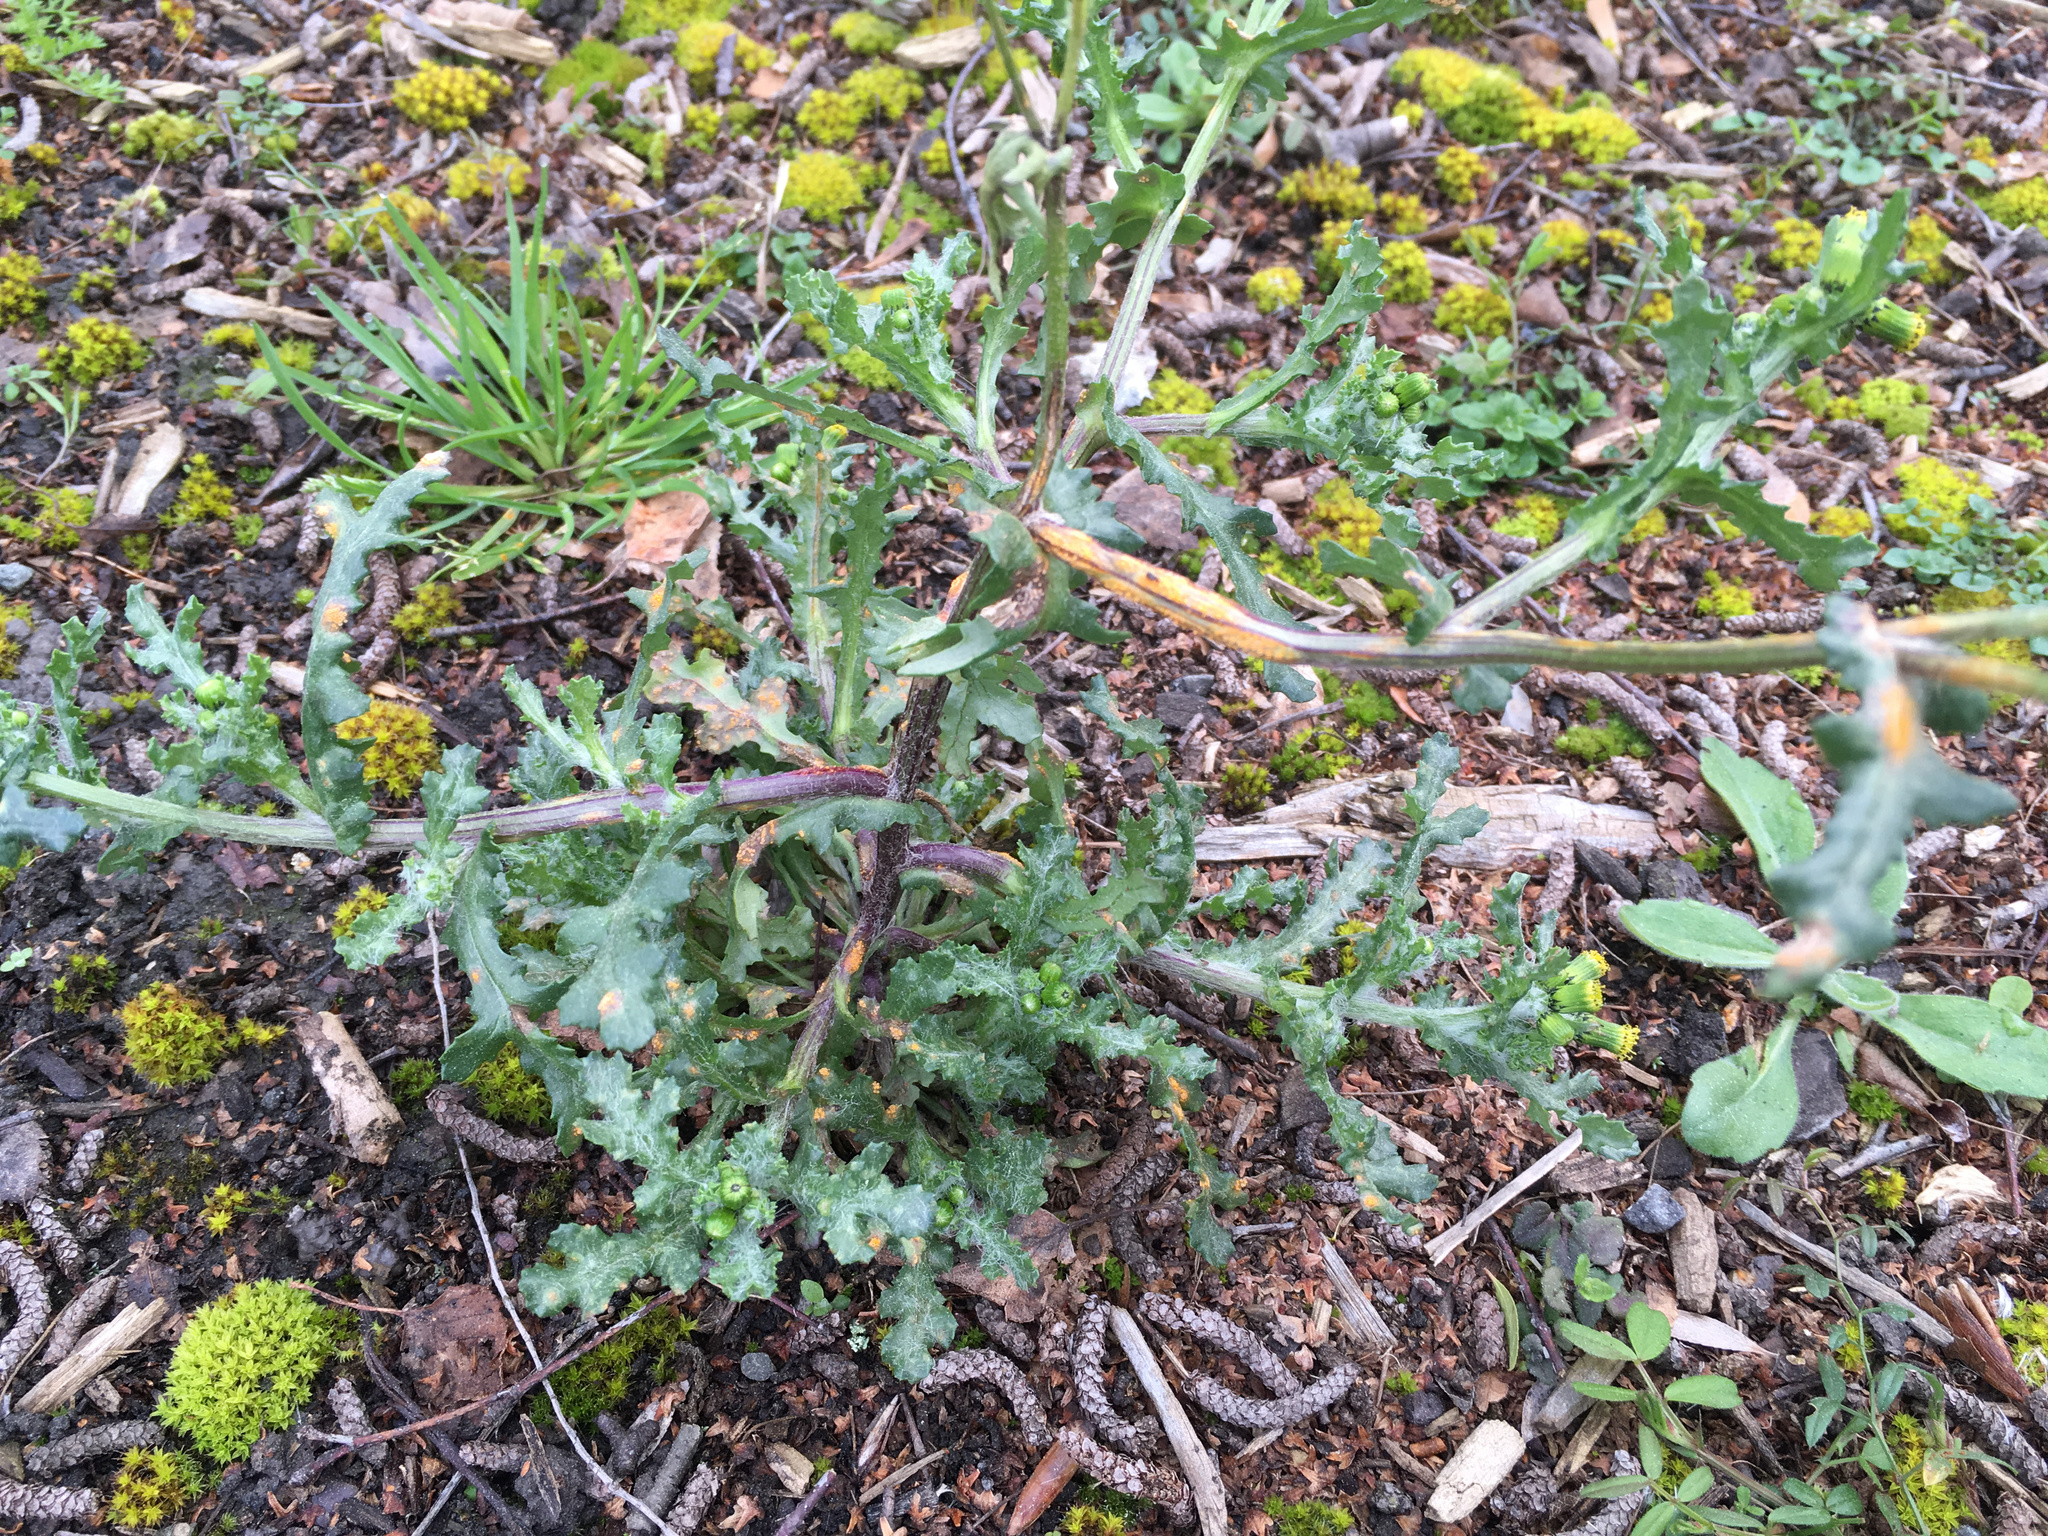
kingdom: Plantae
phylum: Tracheophyta
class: Magnoliopsida
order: Asterales
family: Asteraceae
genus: Senecio
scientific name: Senecio vulgaris
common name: Old-man-in-the-spring
